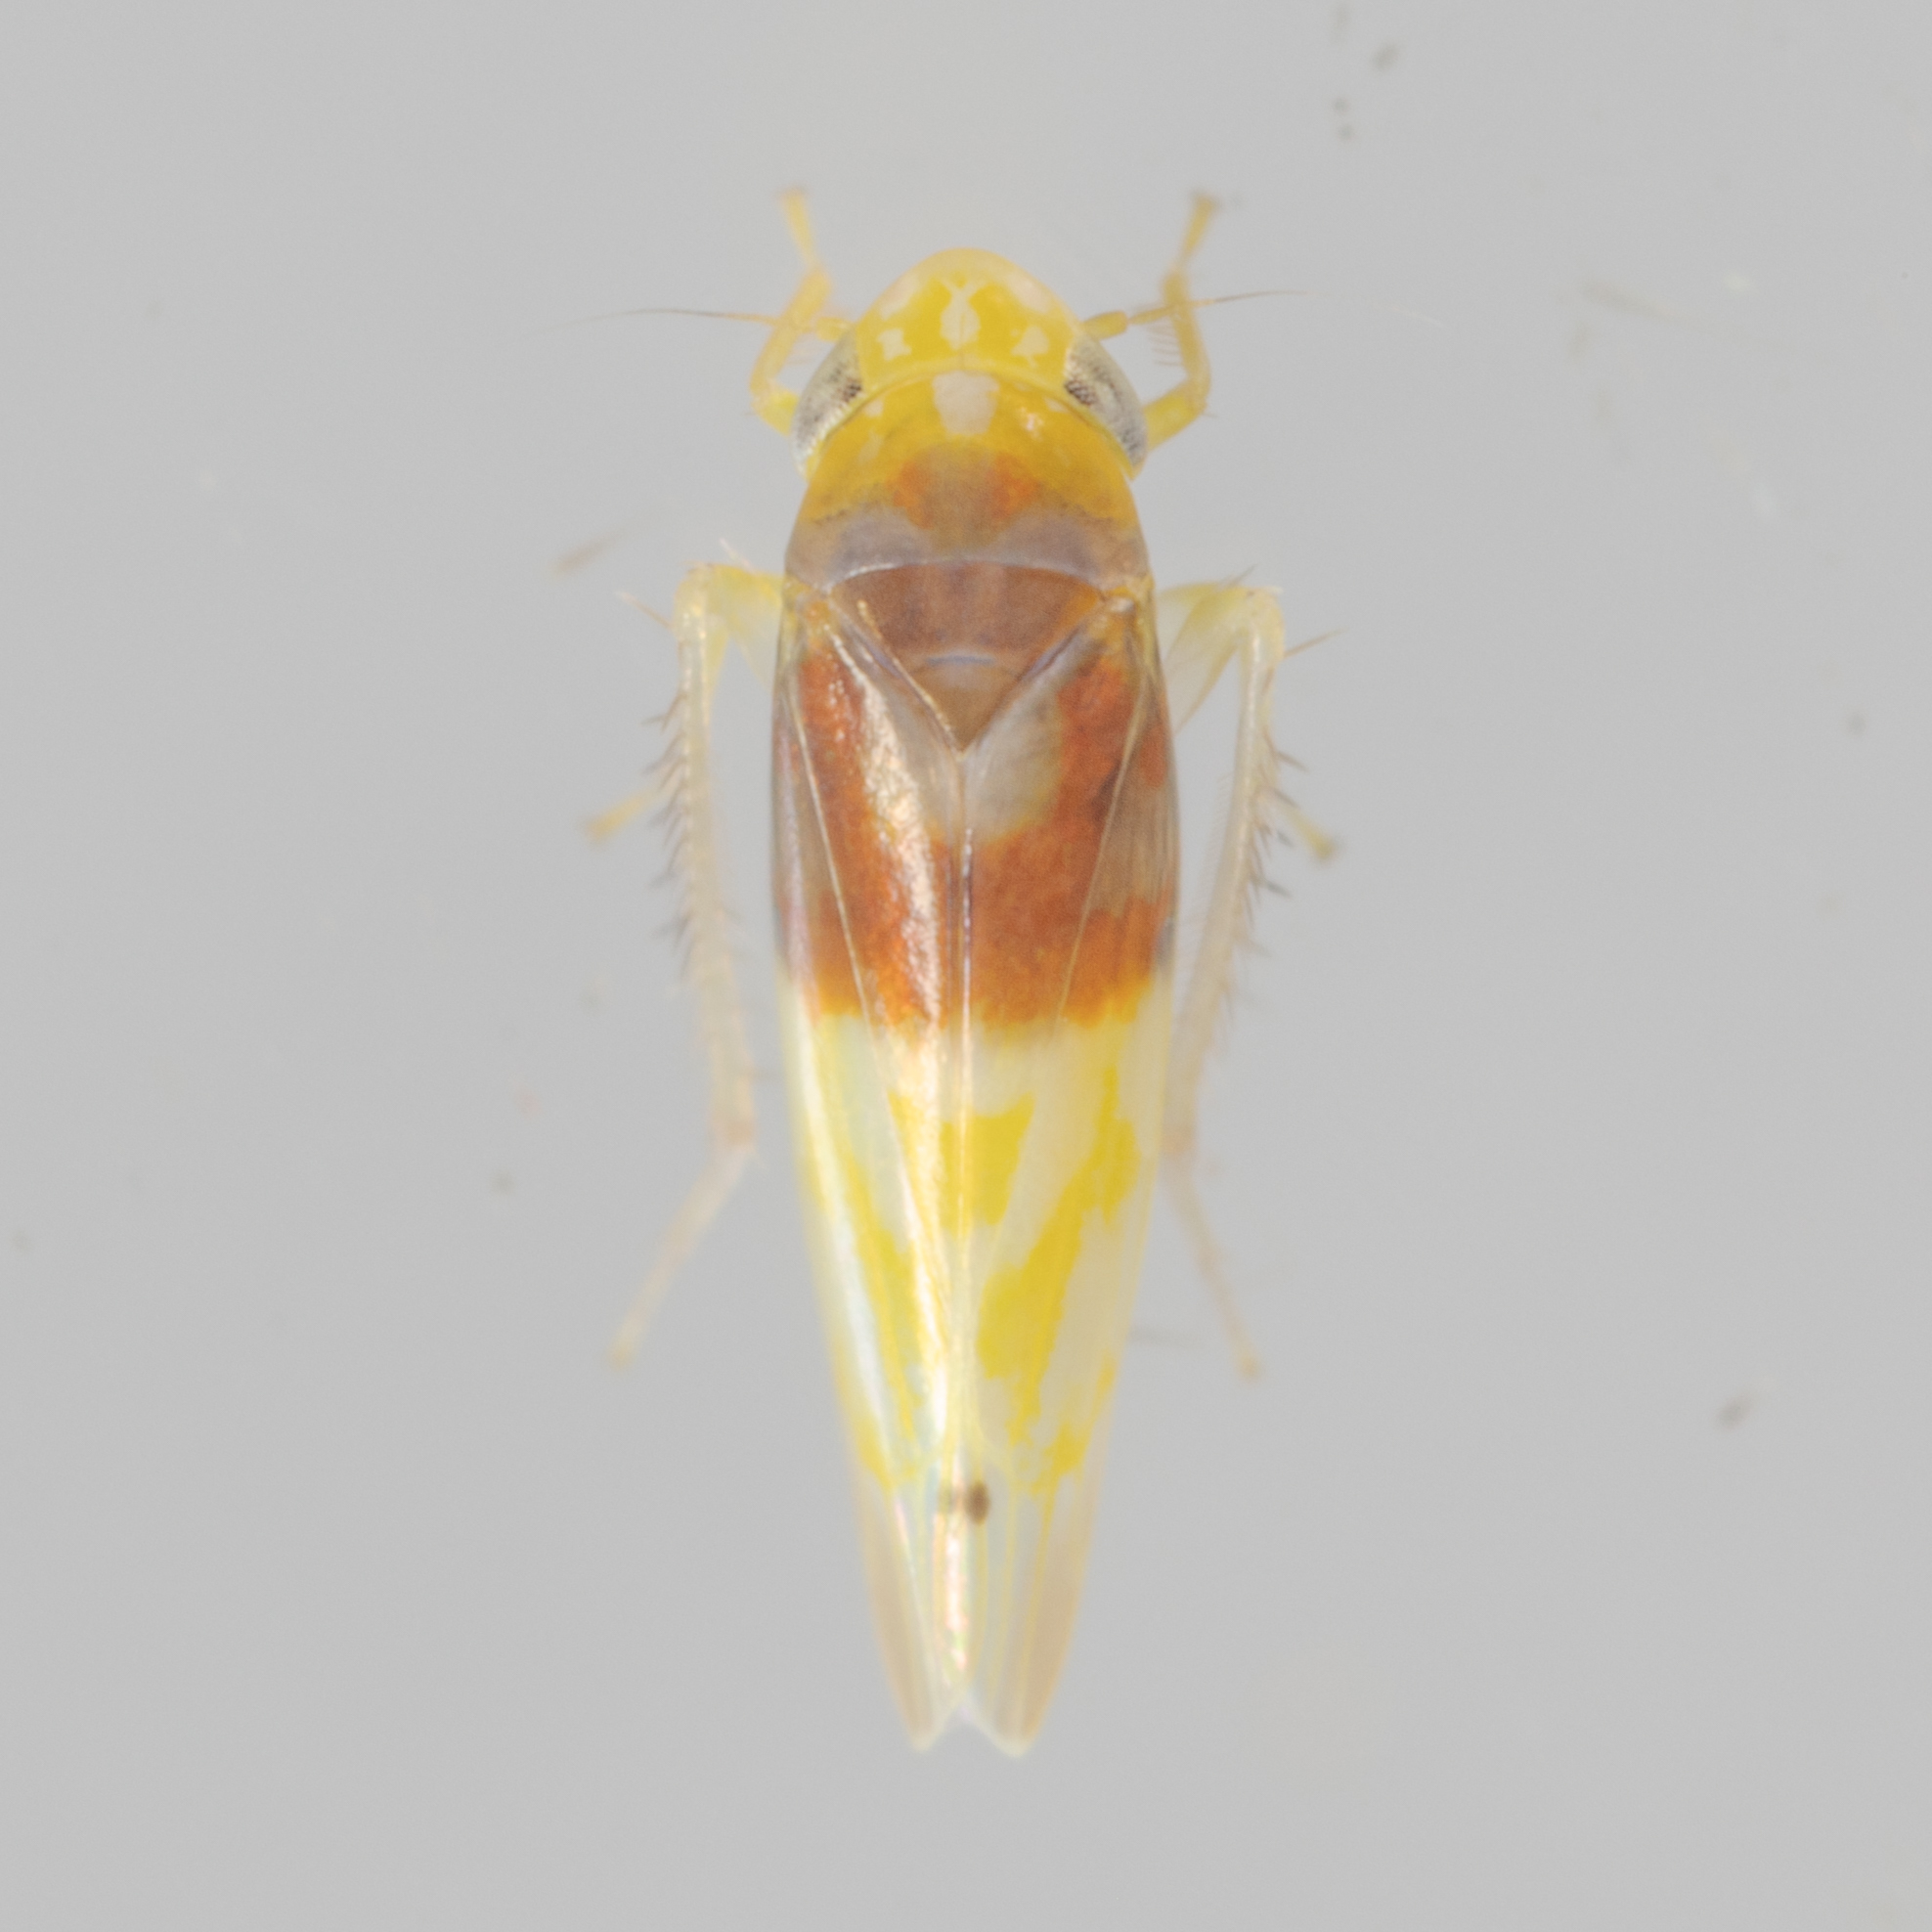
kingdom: Animalia
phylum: Arthropoda
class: Insecta
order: Hemiptera
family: Cicadellidae
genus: Eratoneura
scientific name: Eratoneura affinis
